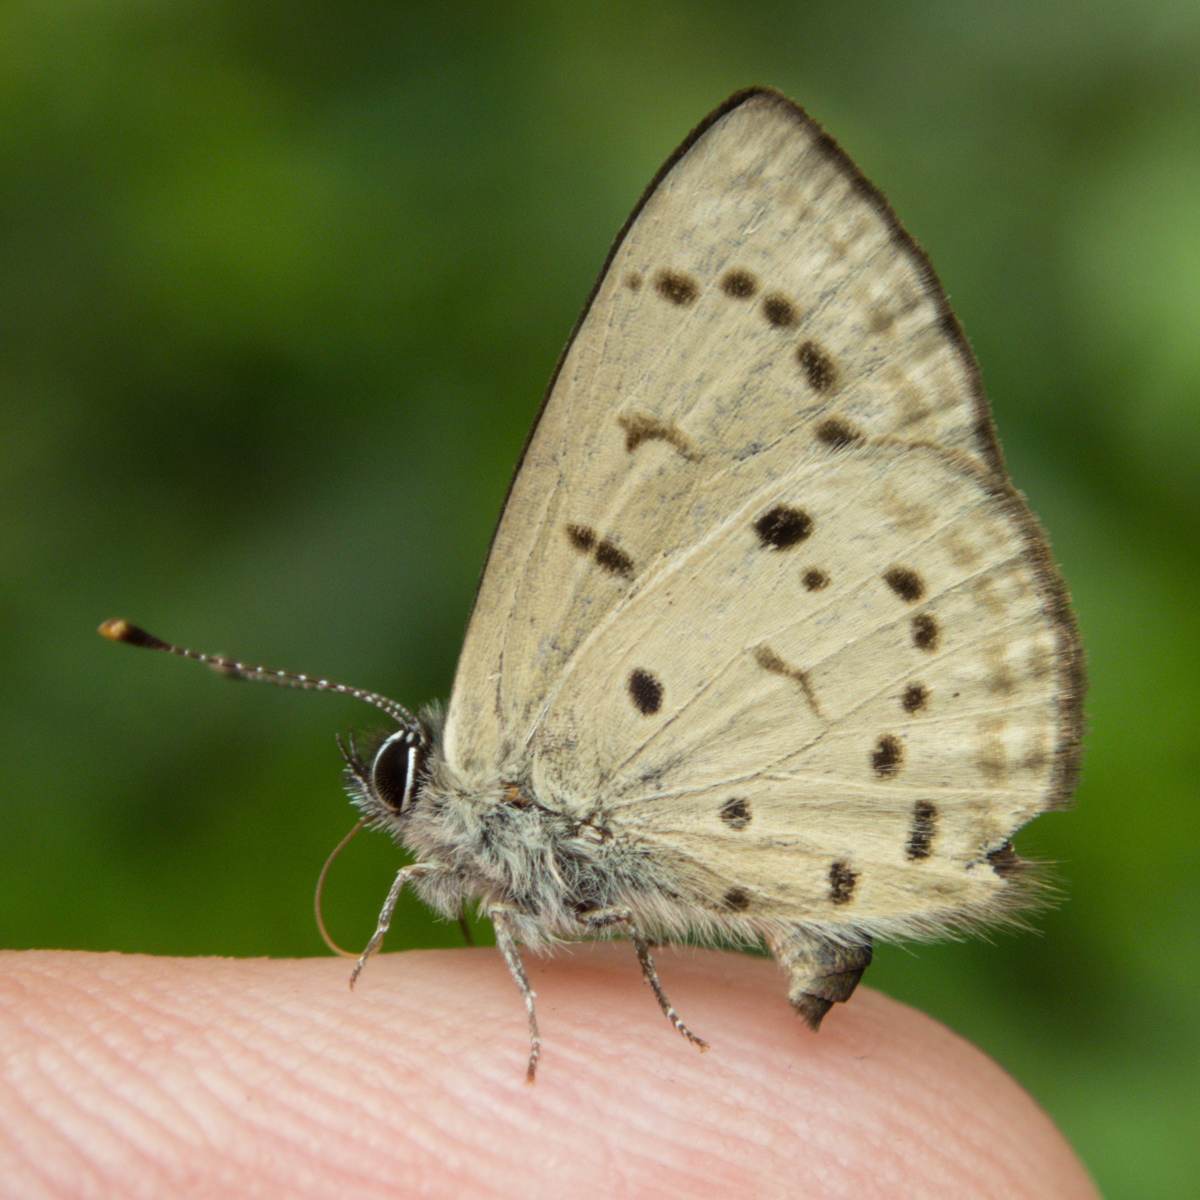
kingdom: Animalia
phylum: Arthropoda
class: Insecta
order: Lepidoptera
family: Lycaenidae
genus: Una
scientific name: Una usta
